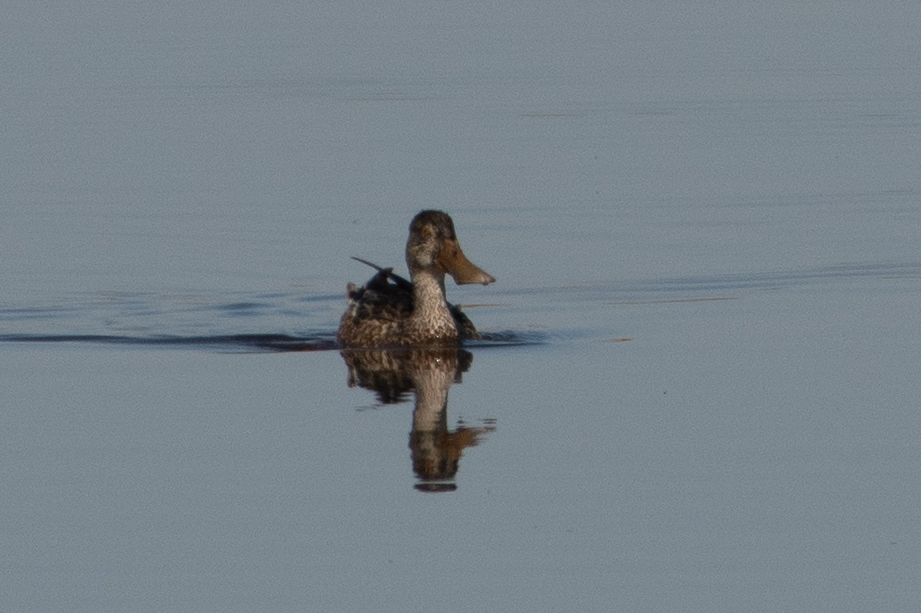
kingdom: Animalia
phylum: Chordata
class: Aves
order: Anseriformes
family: Anatidae
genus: Spatula
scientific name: Spatula clypeata
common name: Northern shoveler
